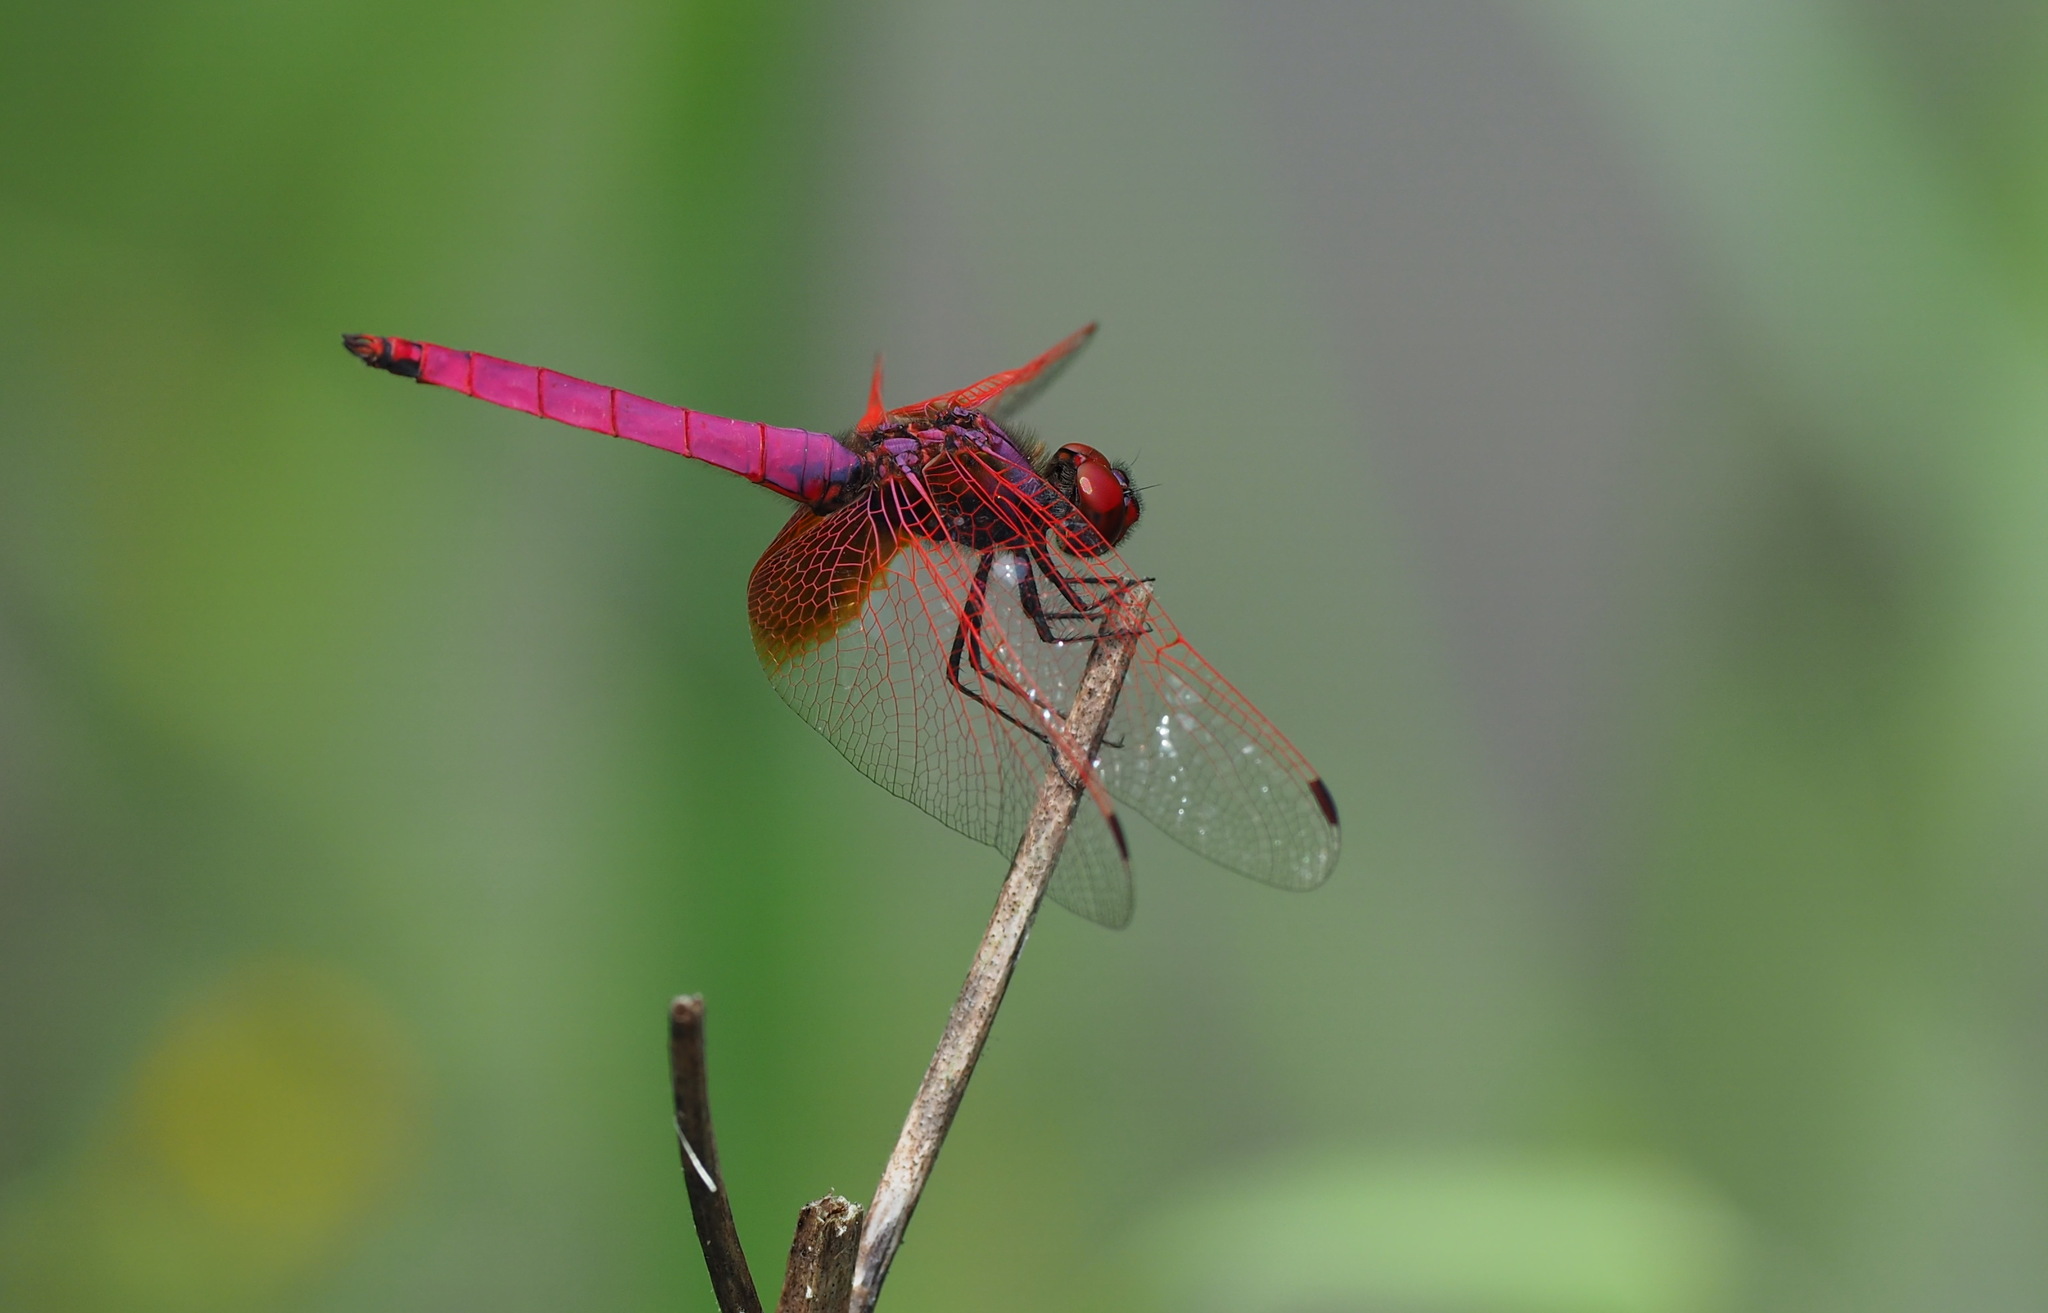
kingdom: Animalia
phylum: Arthropoda
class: Insecta
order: Odonata
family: Libellulidae
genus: Trithemis
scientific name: Trithemis aurora
